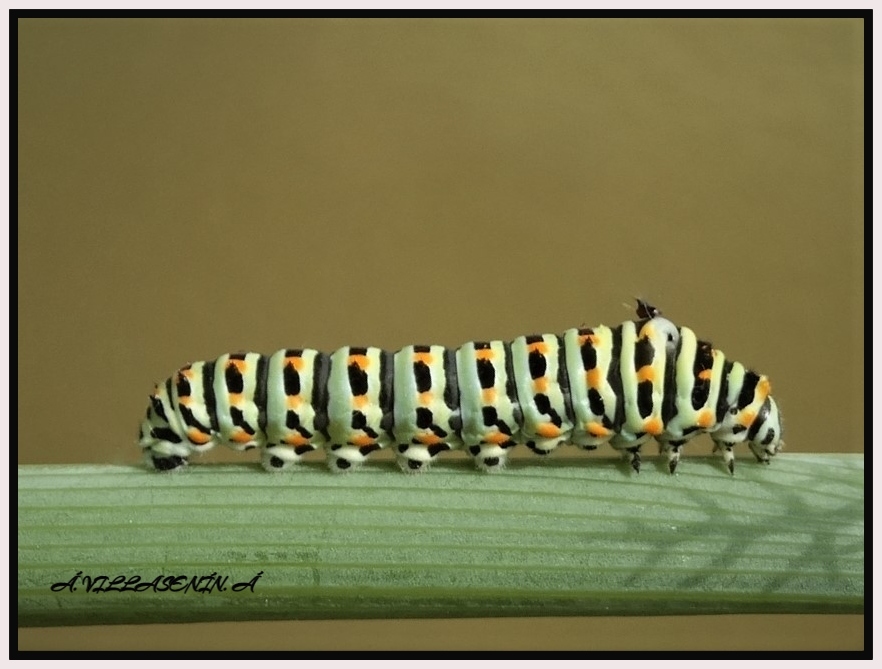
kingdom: Animalia
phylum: Arthropoda
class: Insecta
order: Lepidoptera
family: Papilionidae
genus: Papilio
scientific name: Papilio machaon
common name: Swallowtail
